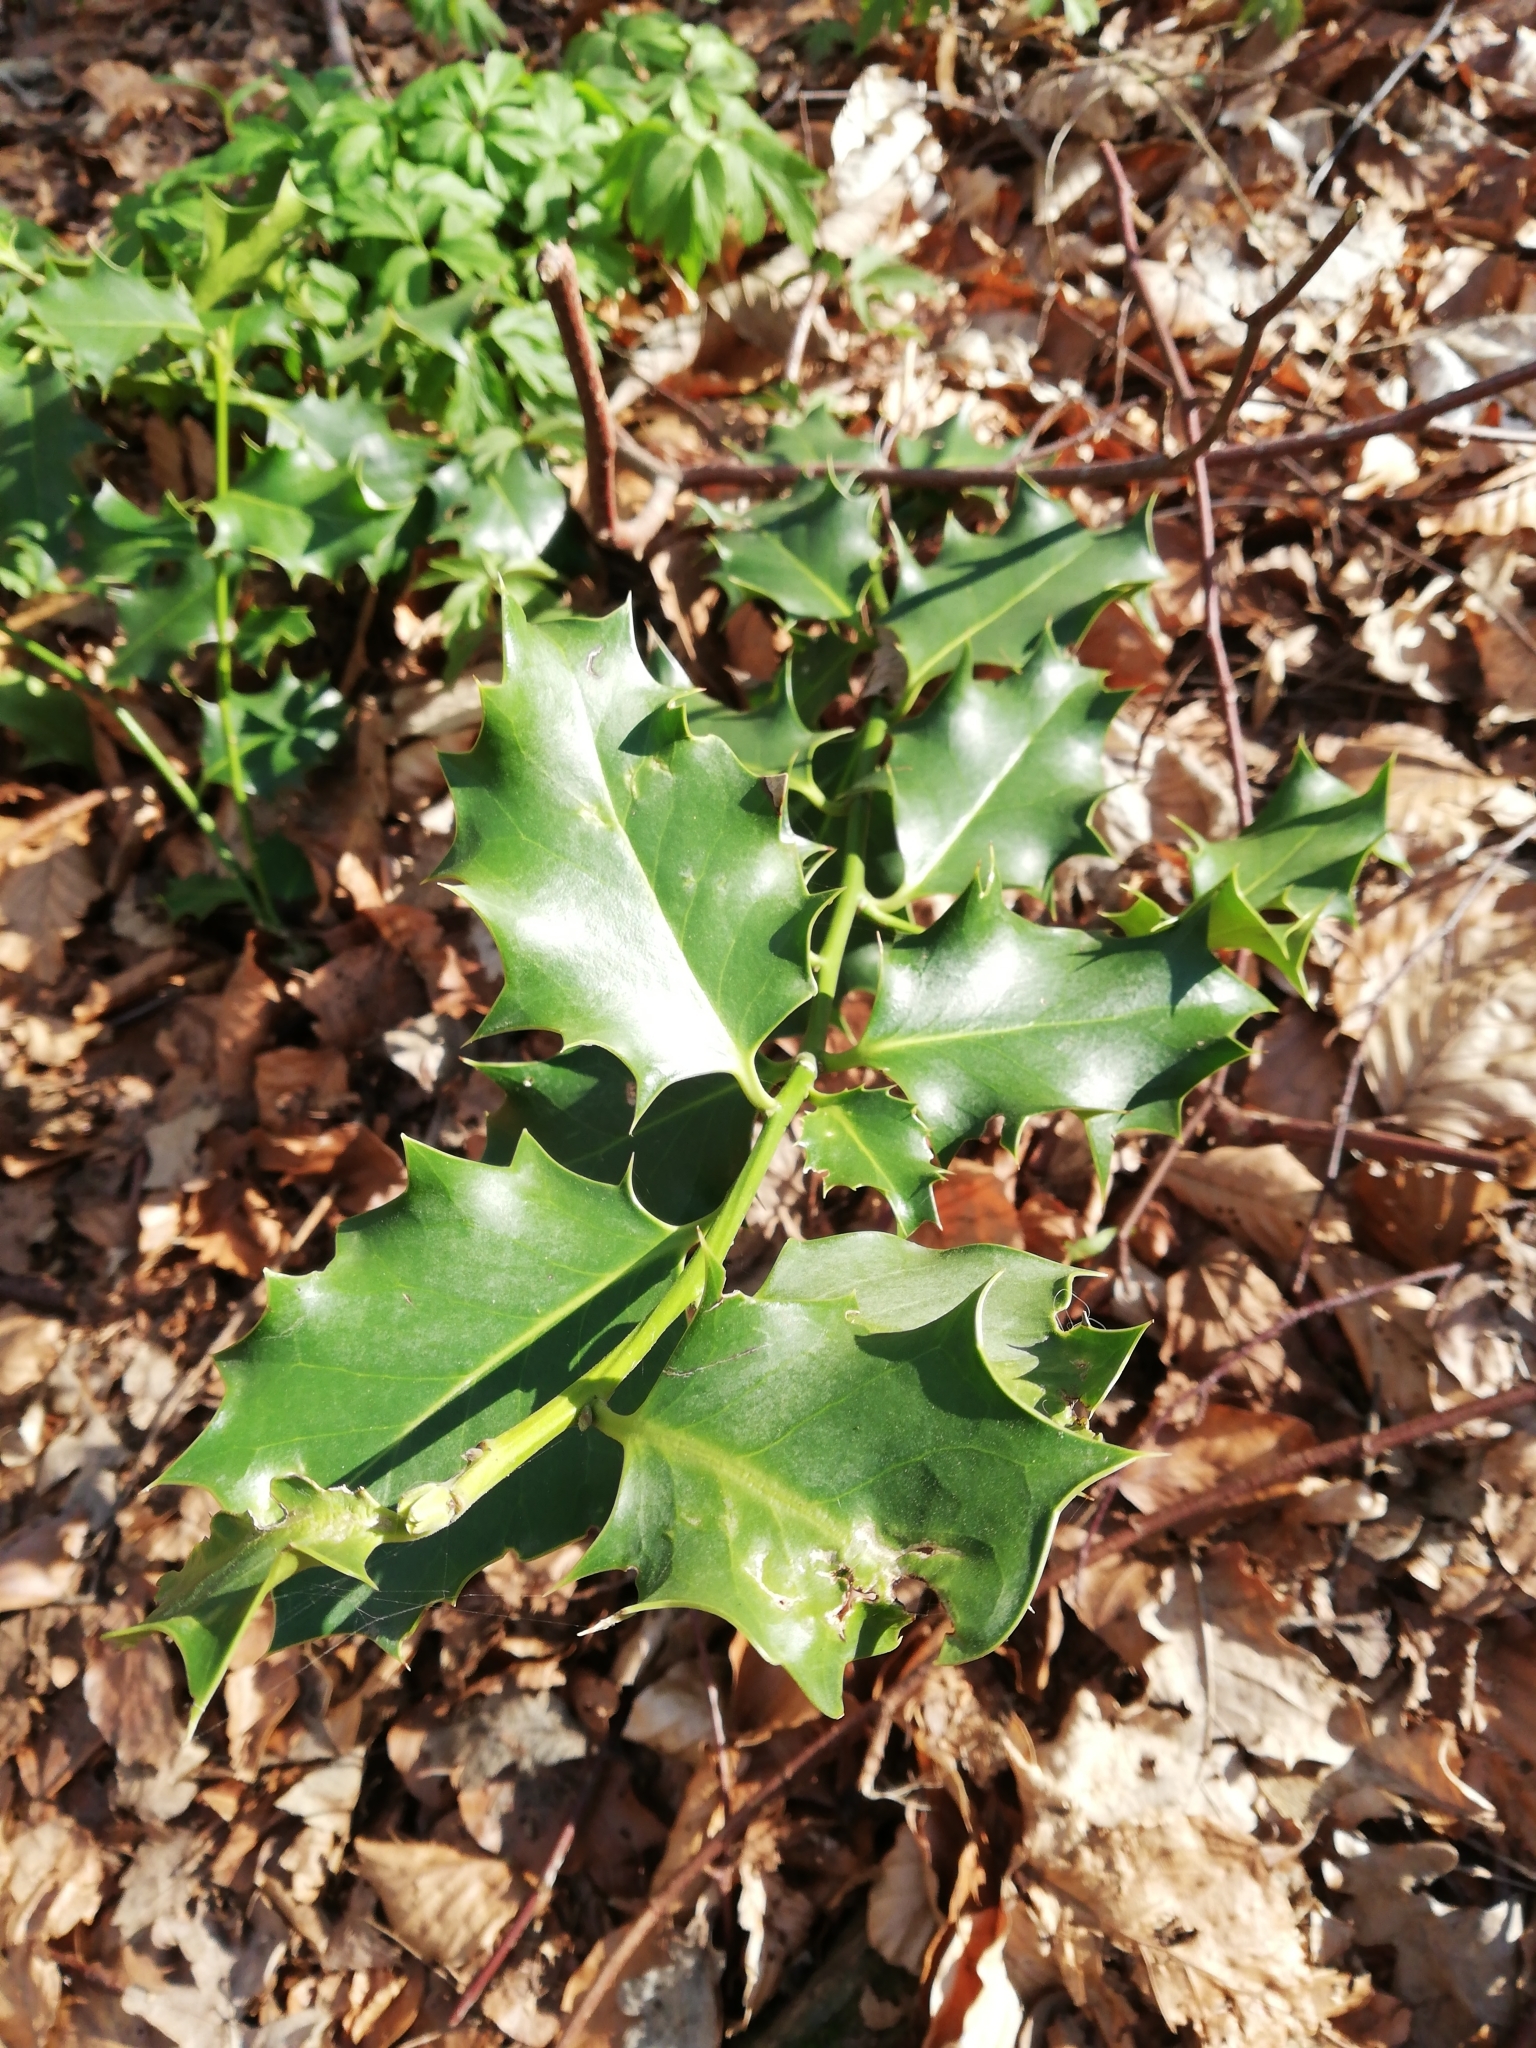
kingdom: Plantae
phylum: Tracheophyta
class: Magnoliopsida
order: Aquifoliales
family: Aquifoliaceae
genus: Ilex
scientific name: Ilex aquifolium
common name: English holly
